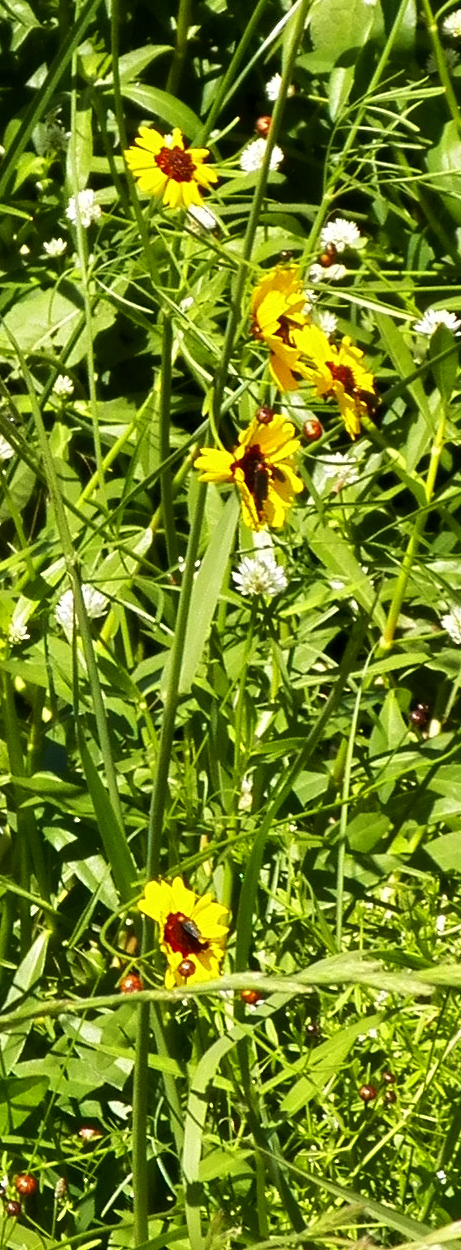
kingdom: Plantae
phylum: Tracheophyta
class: Magnoliopsida
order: Asterales
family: Asteraceae
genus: Coreopsis
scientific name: Coreopsis tinctoria
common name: Garden tickseed
